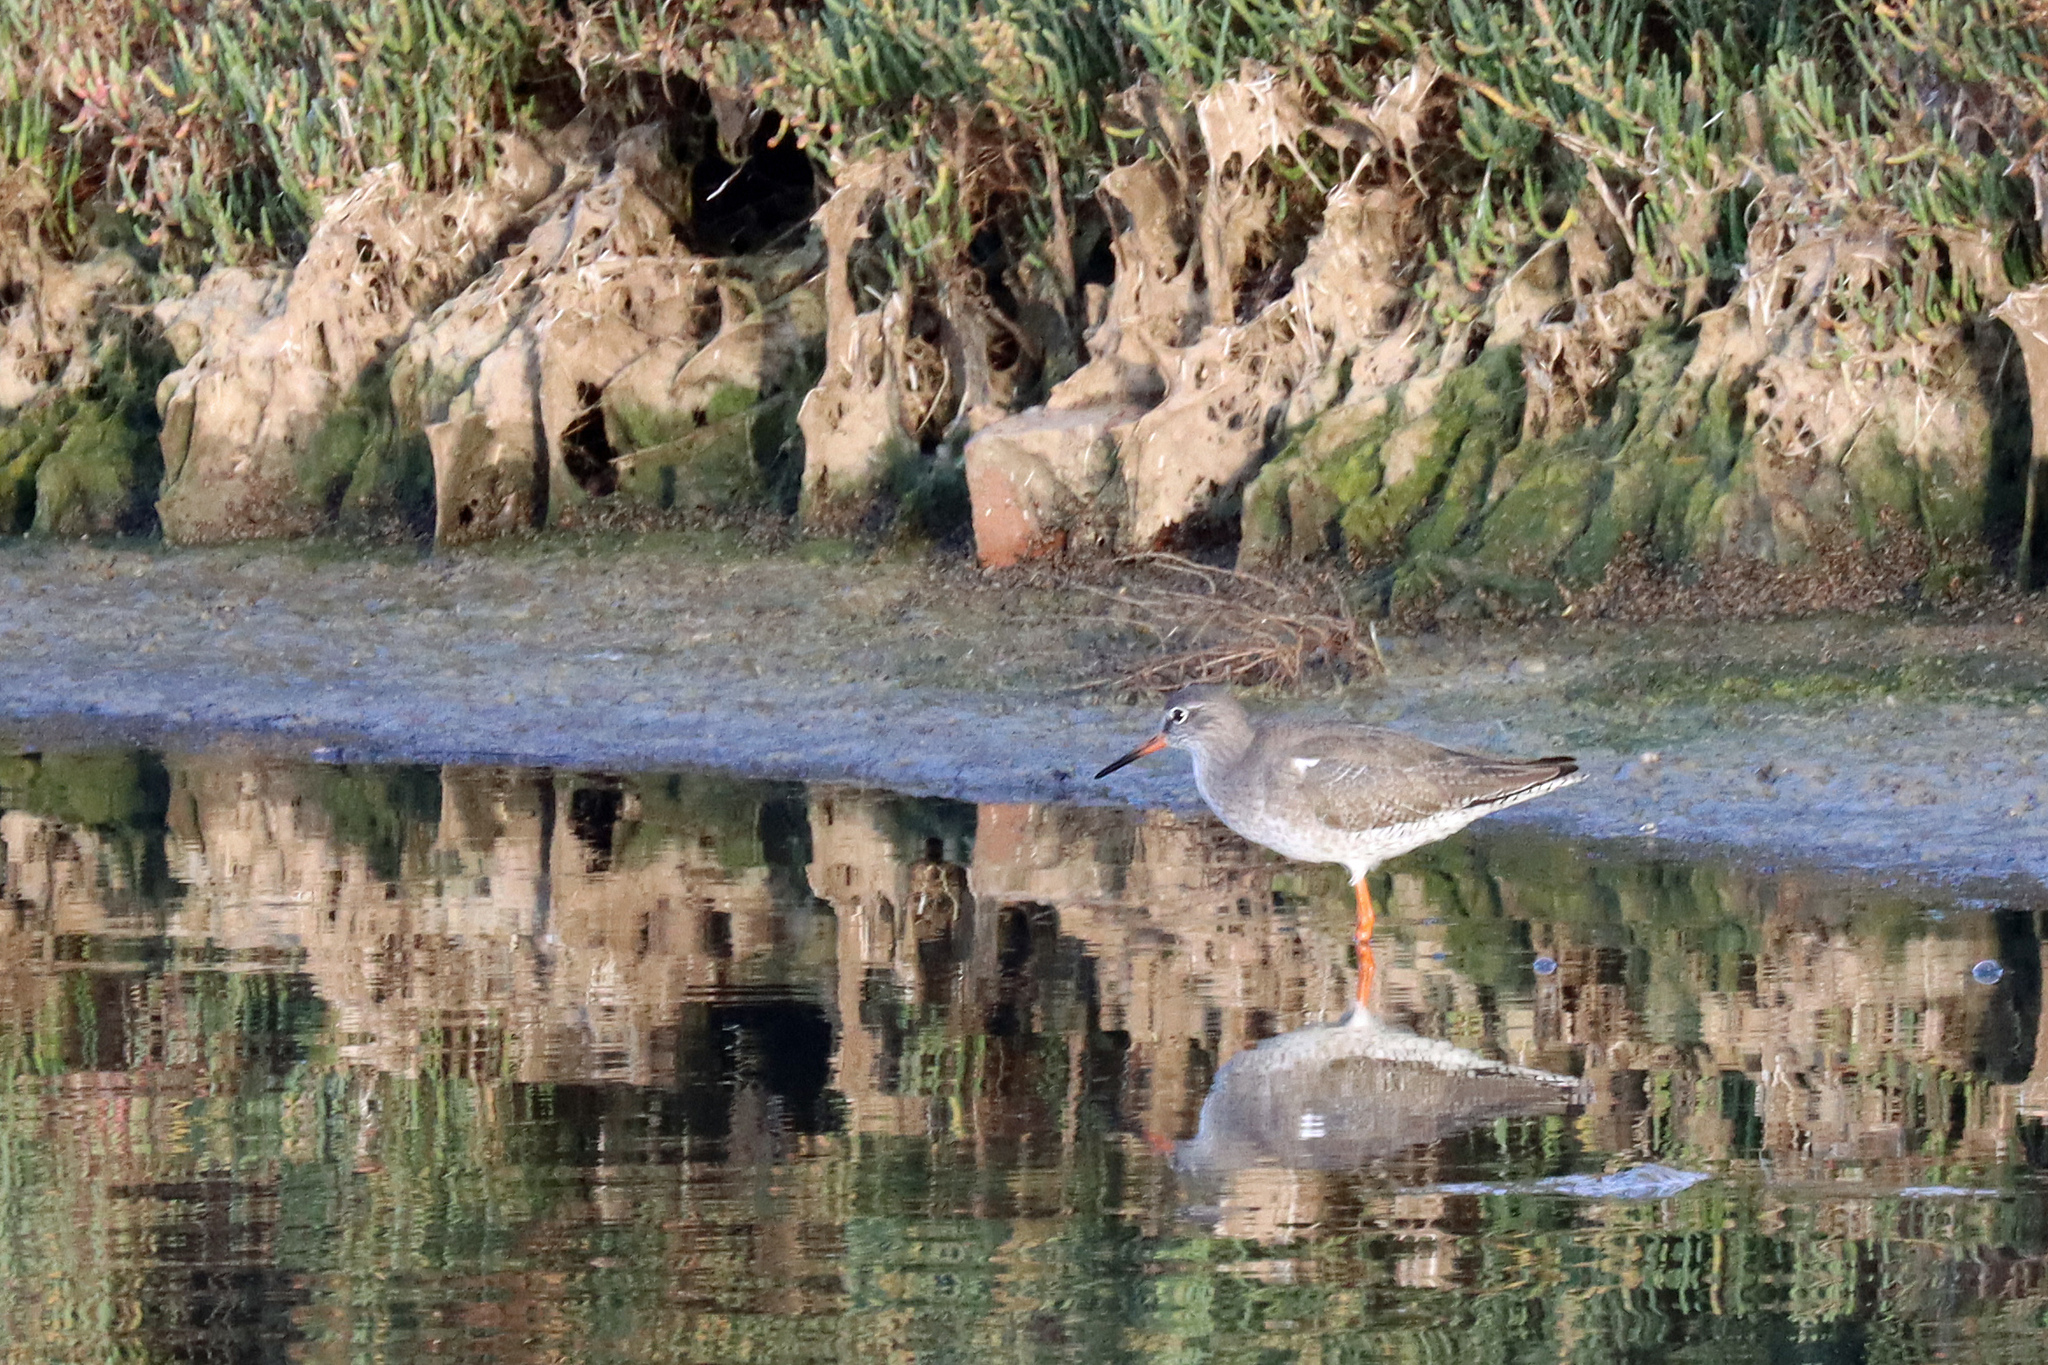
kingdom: Animalia
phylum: Chordata
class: Aves
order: Charadriiformes
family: Scolopacidae
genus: Tringa
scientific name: Tringa totanus
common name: Common redshank
